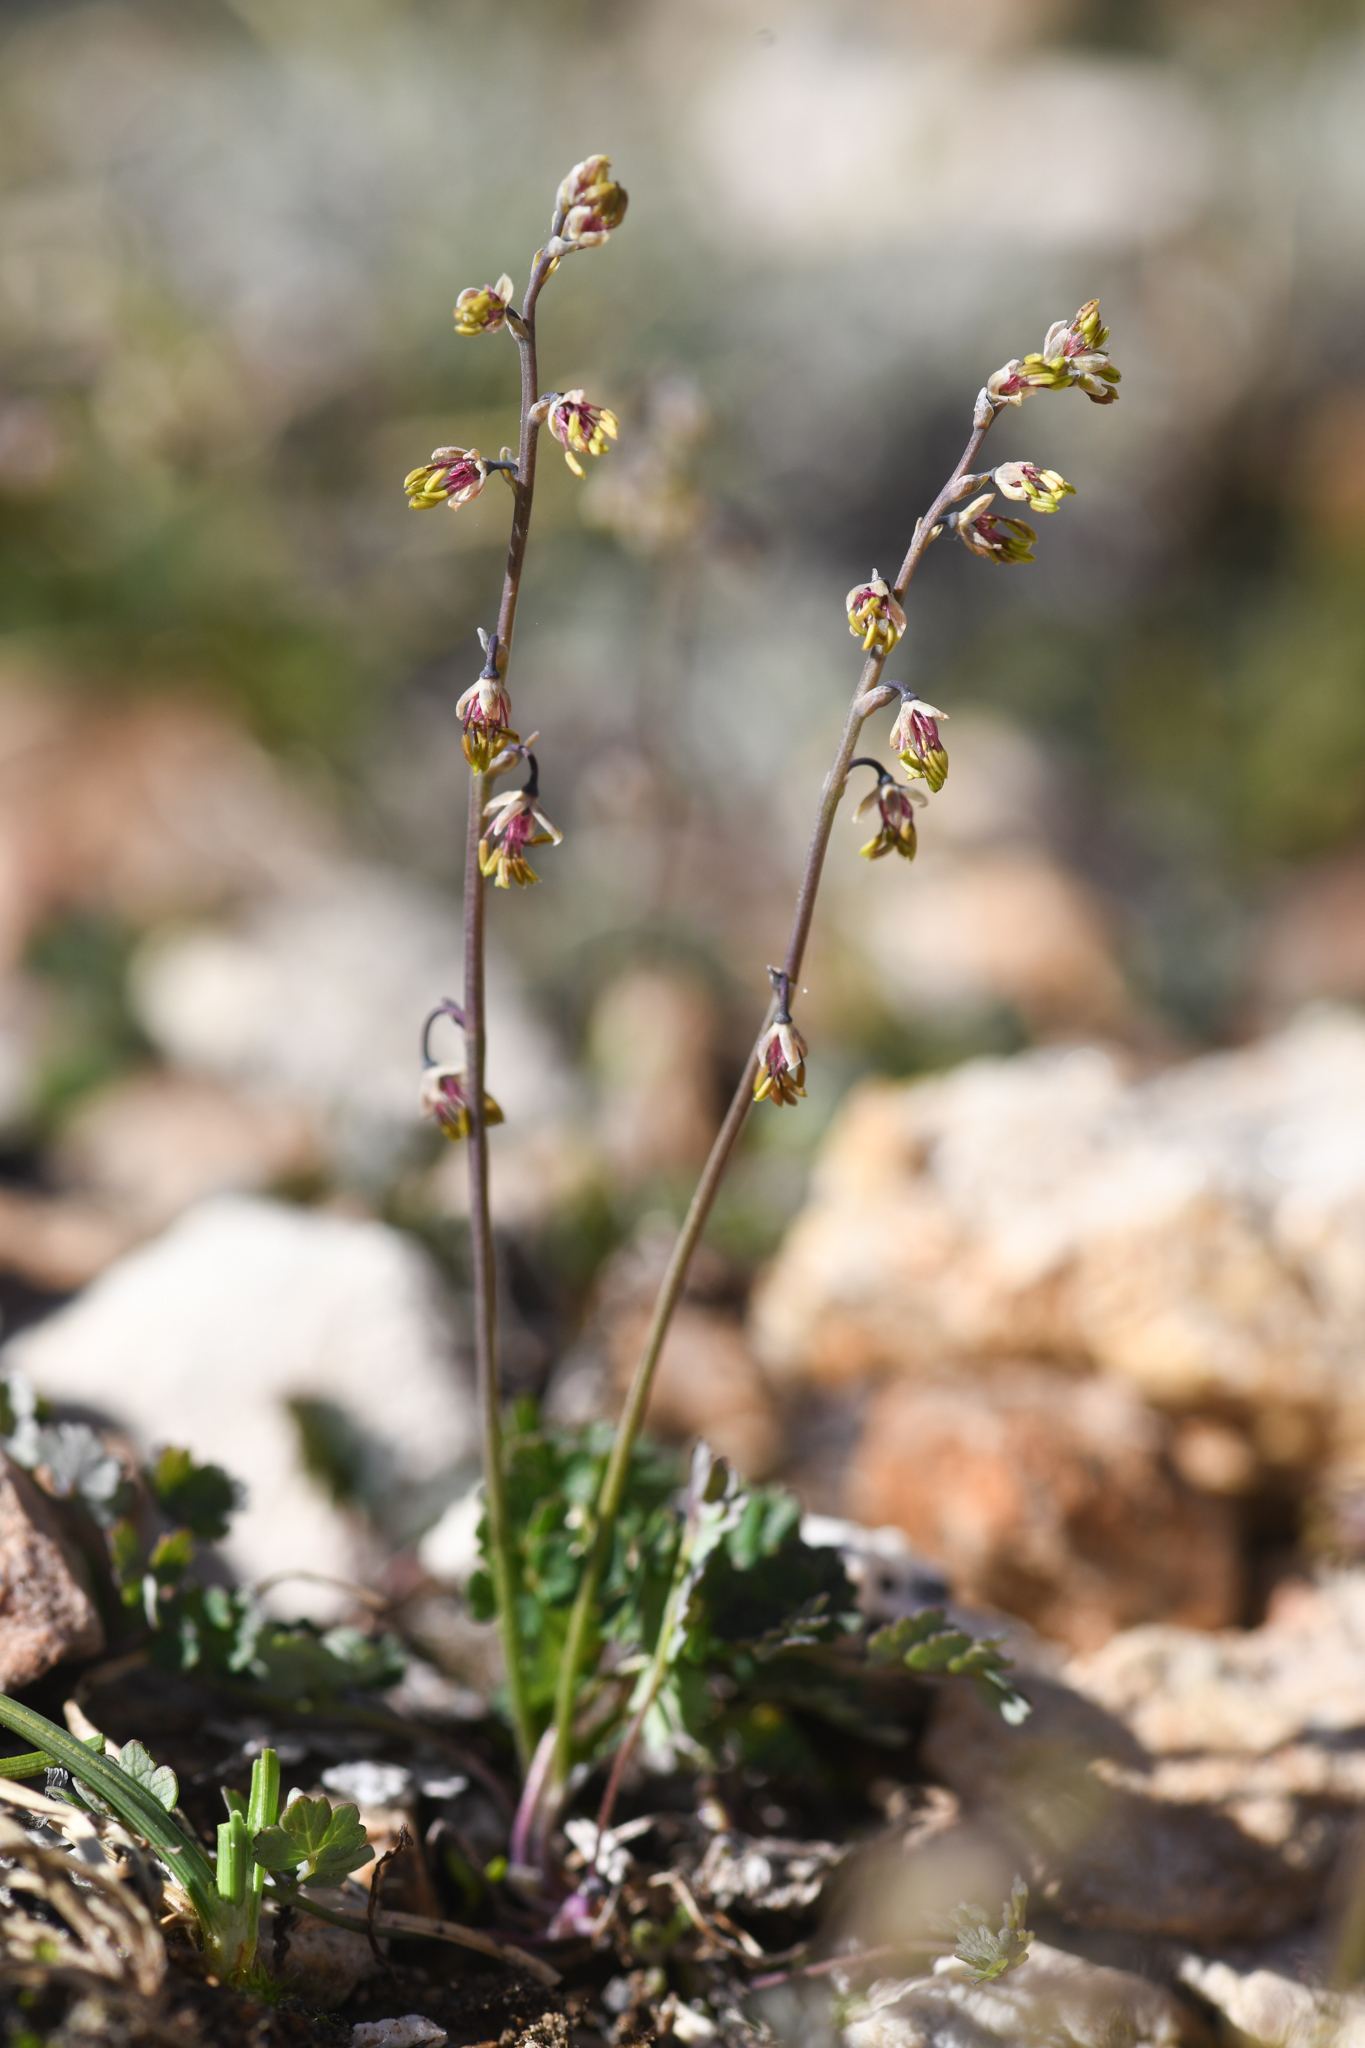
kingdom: Plantae
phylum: Tracheophyta
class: Magnoliopsida
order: Ranunculales
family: Ranunculaceae
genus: Thalictrum
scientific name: Thalictrum alpinum
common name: Alpine meadow-rue
